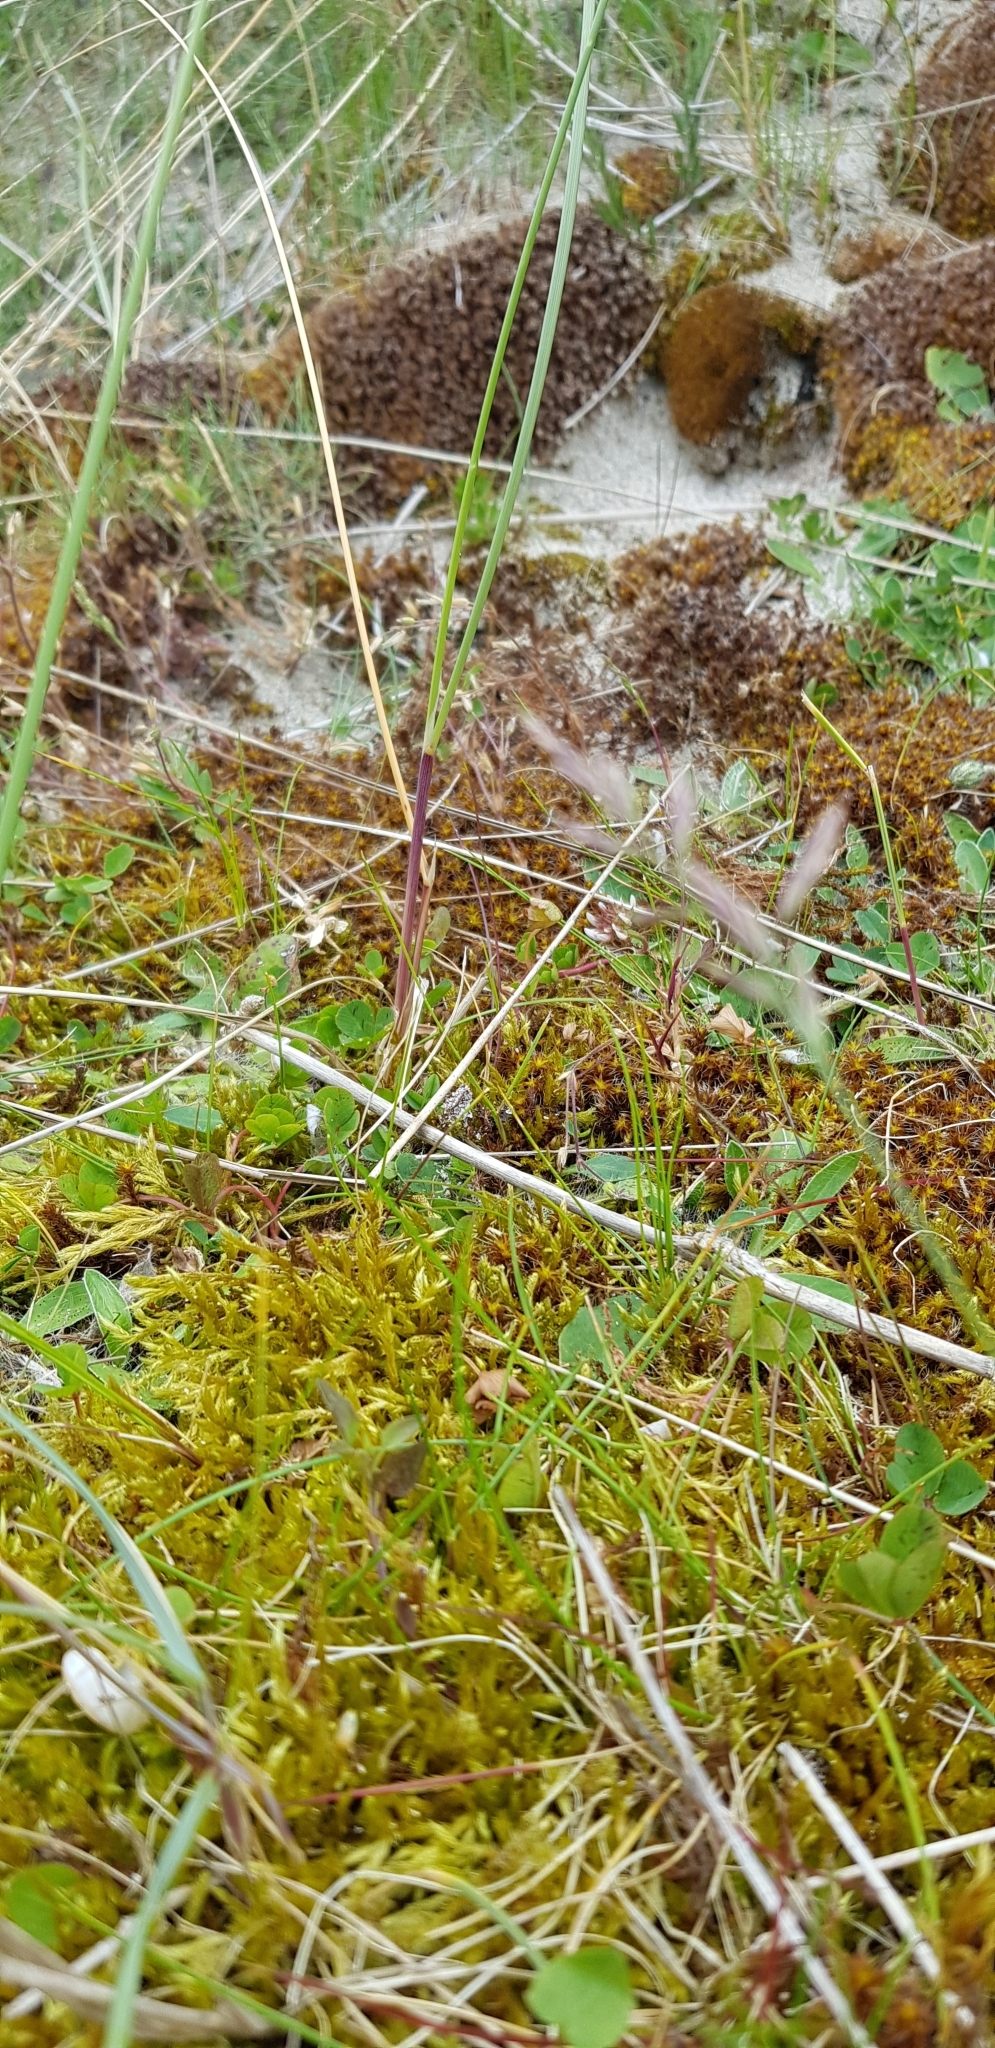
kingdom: Plantae
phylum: Bryophyta
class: Bryopsida
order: Hypnales
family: Brachytheciaceae
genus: Brachythecium
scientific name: Brachythecium albicans
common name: Whitish ragged moss
